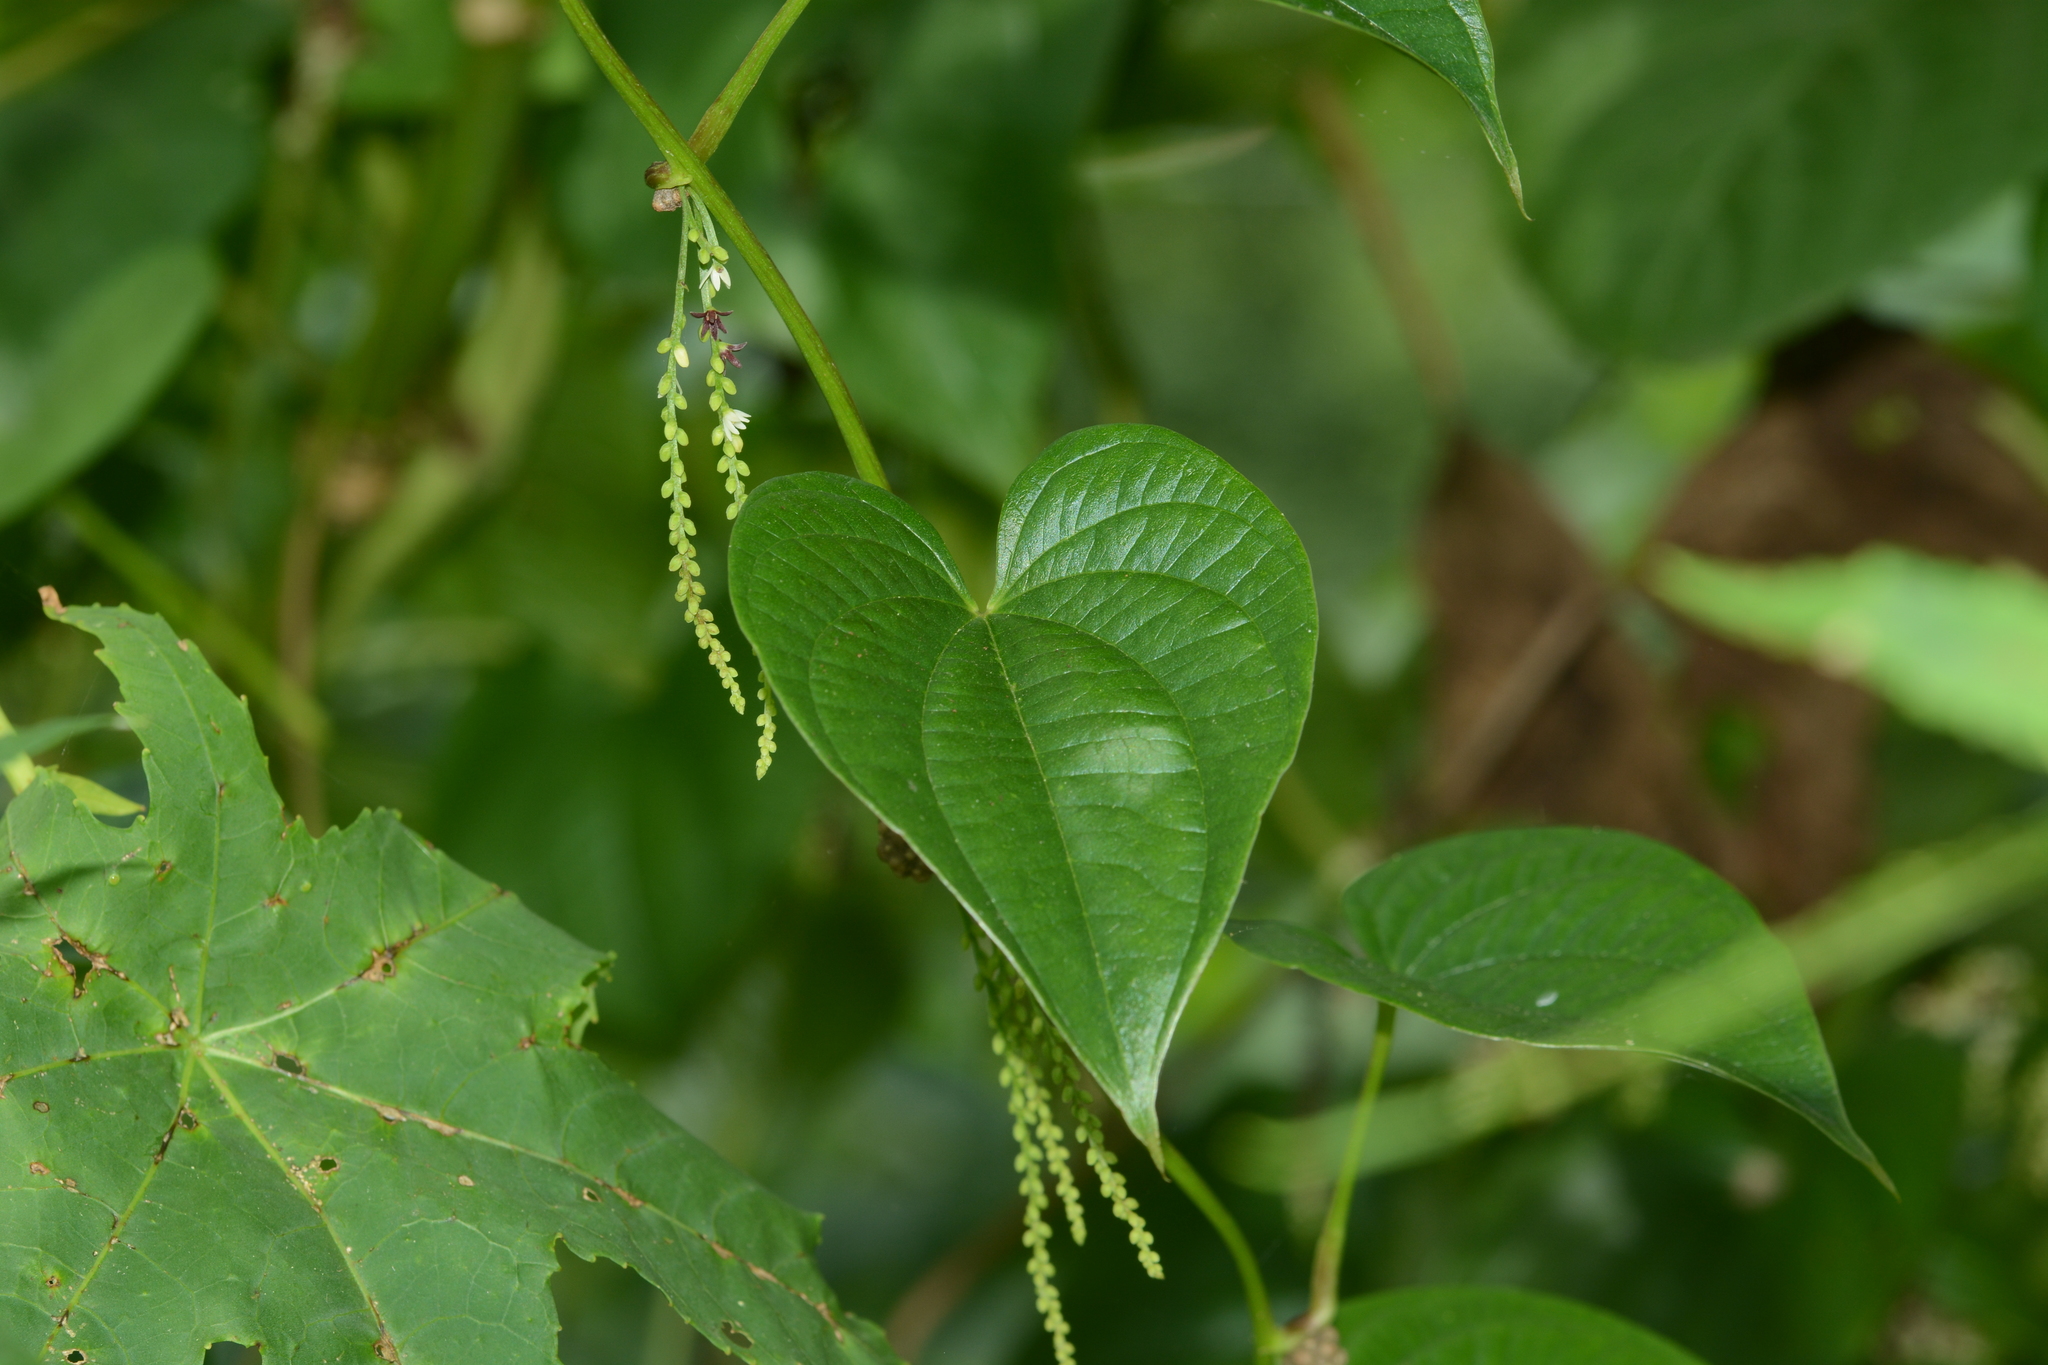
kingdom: Plantae
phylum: Tracheophyta
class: Liliopsida
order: Dioscoreales
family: Dioscoreaceae
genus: Dioscorea
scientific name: Dioscorea bulbifera
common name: Air yam
